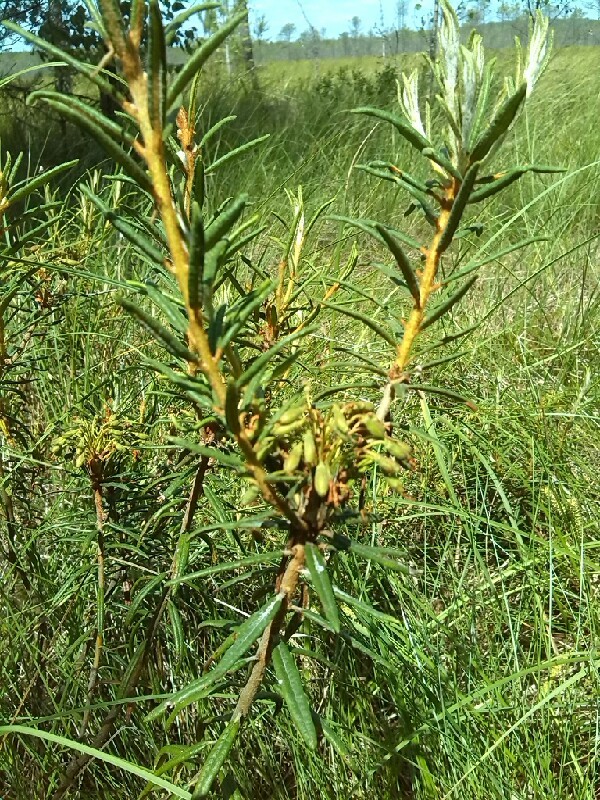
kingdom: Plantae
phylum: Tracheophyta
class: Magnoliopsida
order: Ericales
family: Ericaceae
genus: Rhododendron
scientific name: Rhododendron tomentosum
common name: Marsh labrador tea
